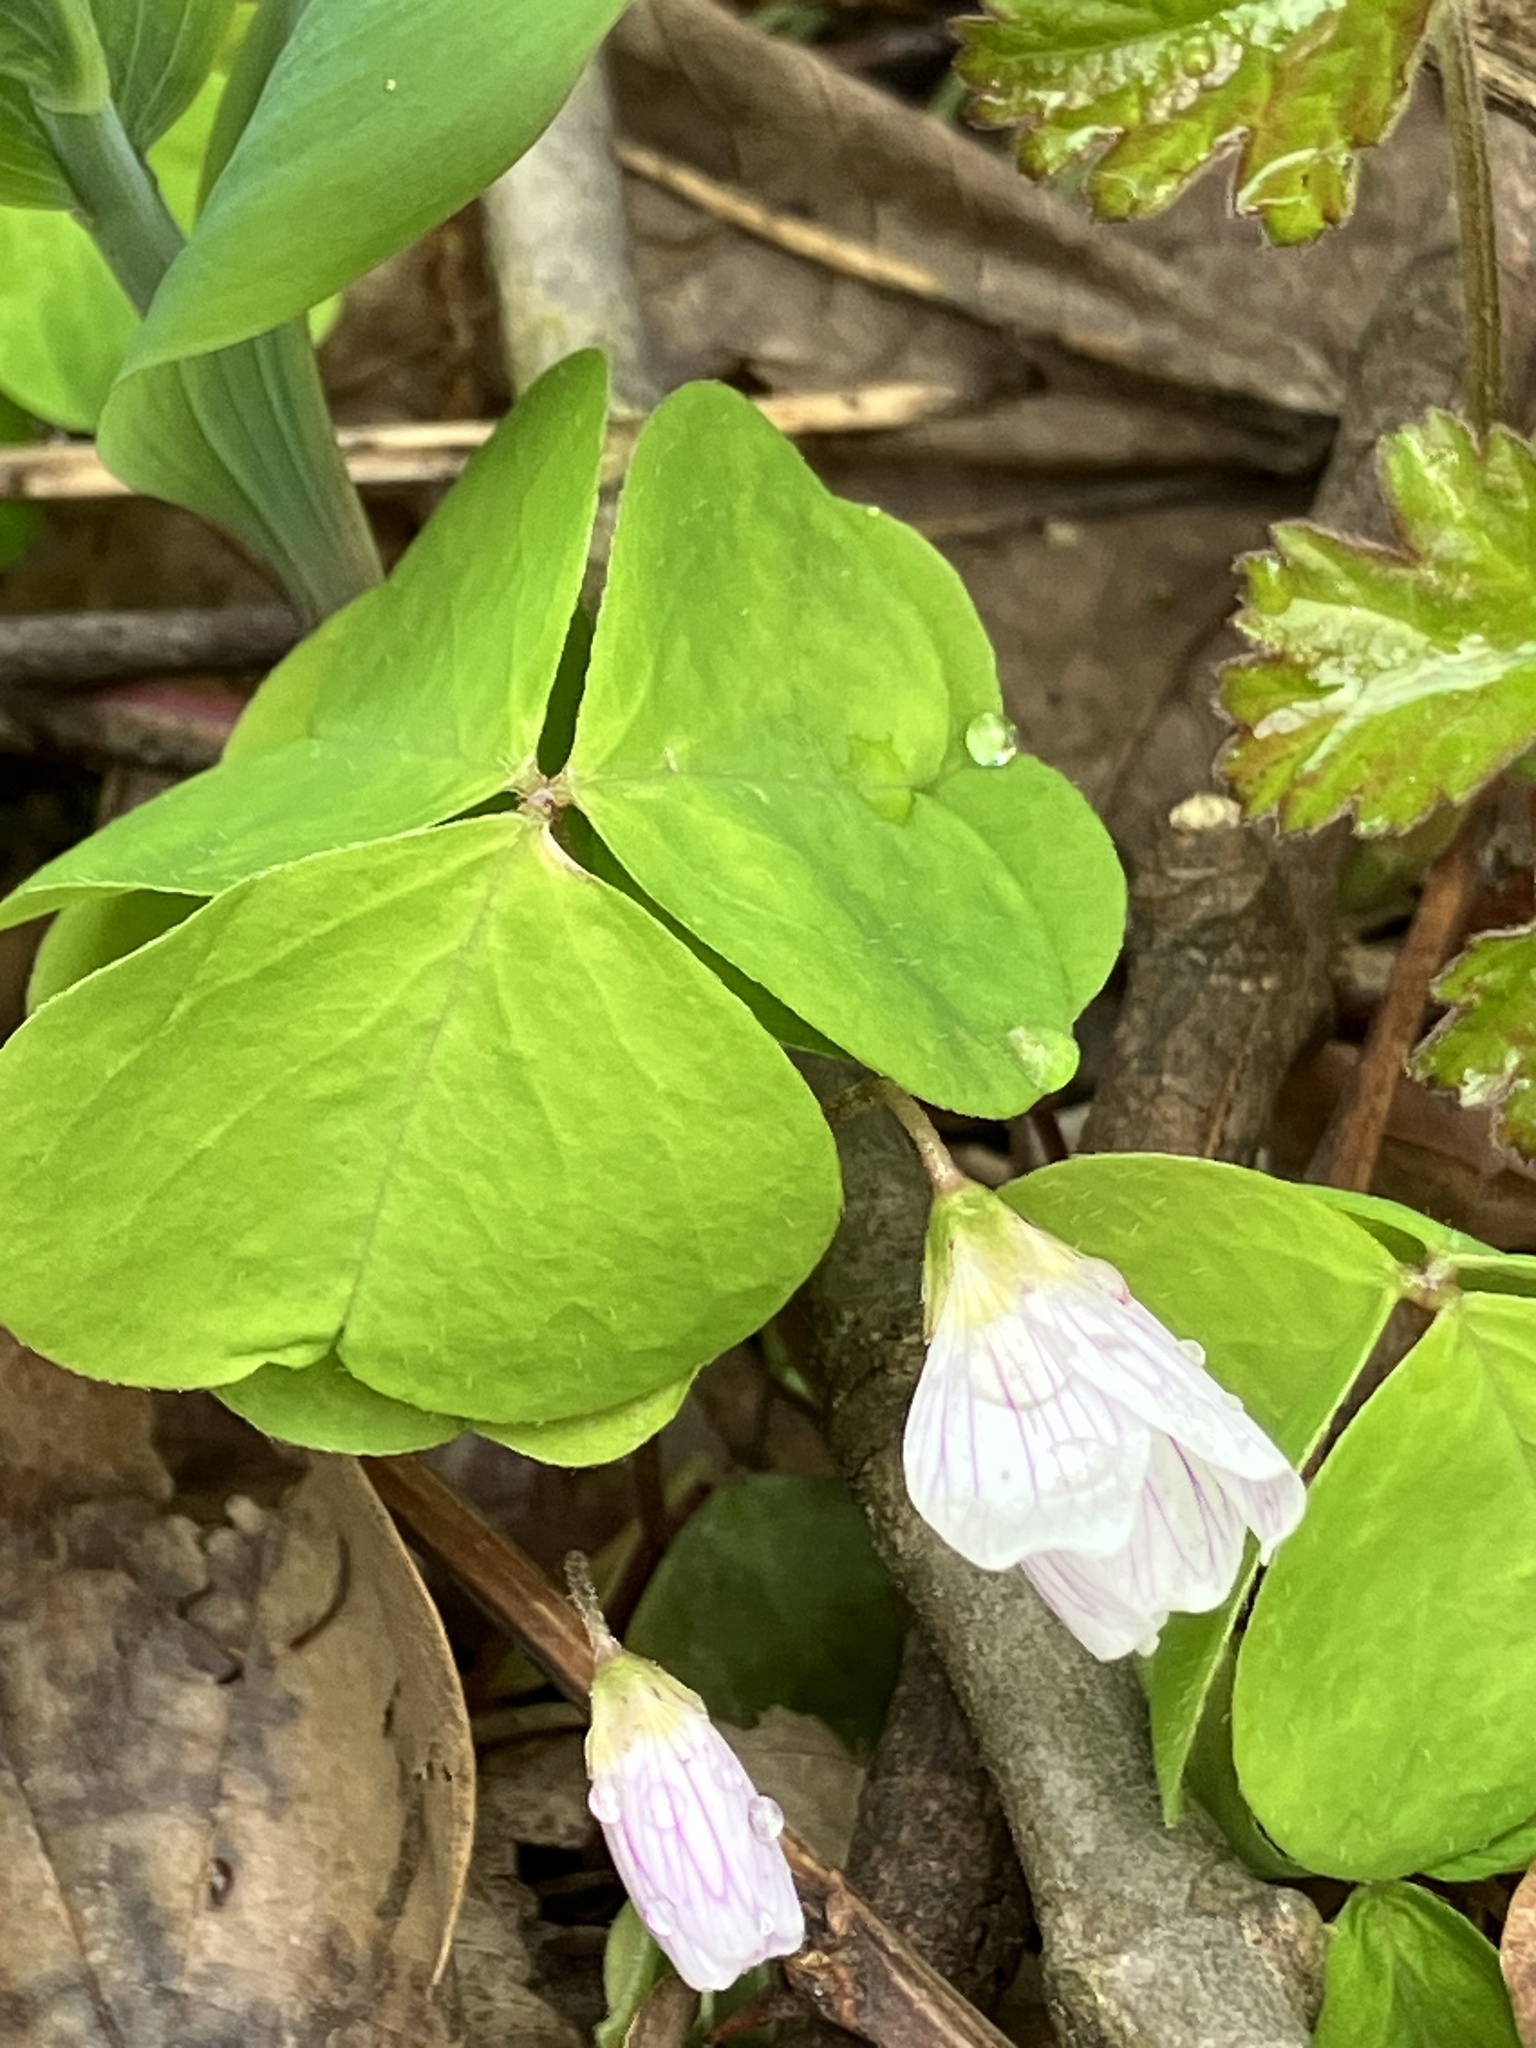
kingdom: Plantae
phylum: Tracheophyta
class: Magnoliopsida
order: Oxalidales
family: Oxalidaceae
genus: Oxalis
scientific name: Oxalis acetosella
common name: Wood-sorrel
